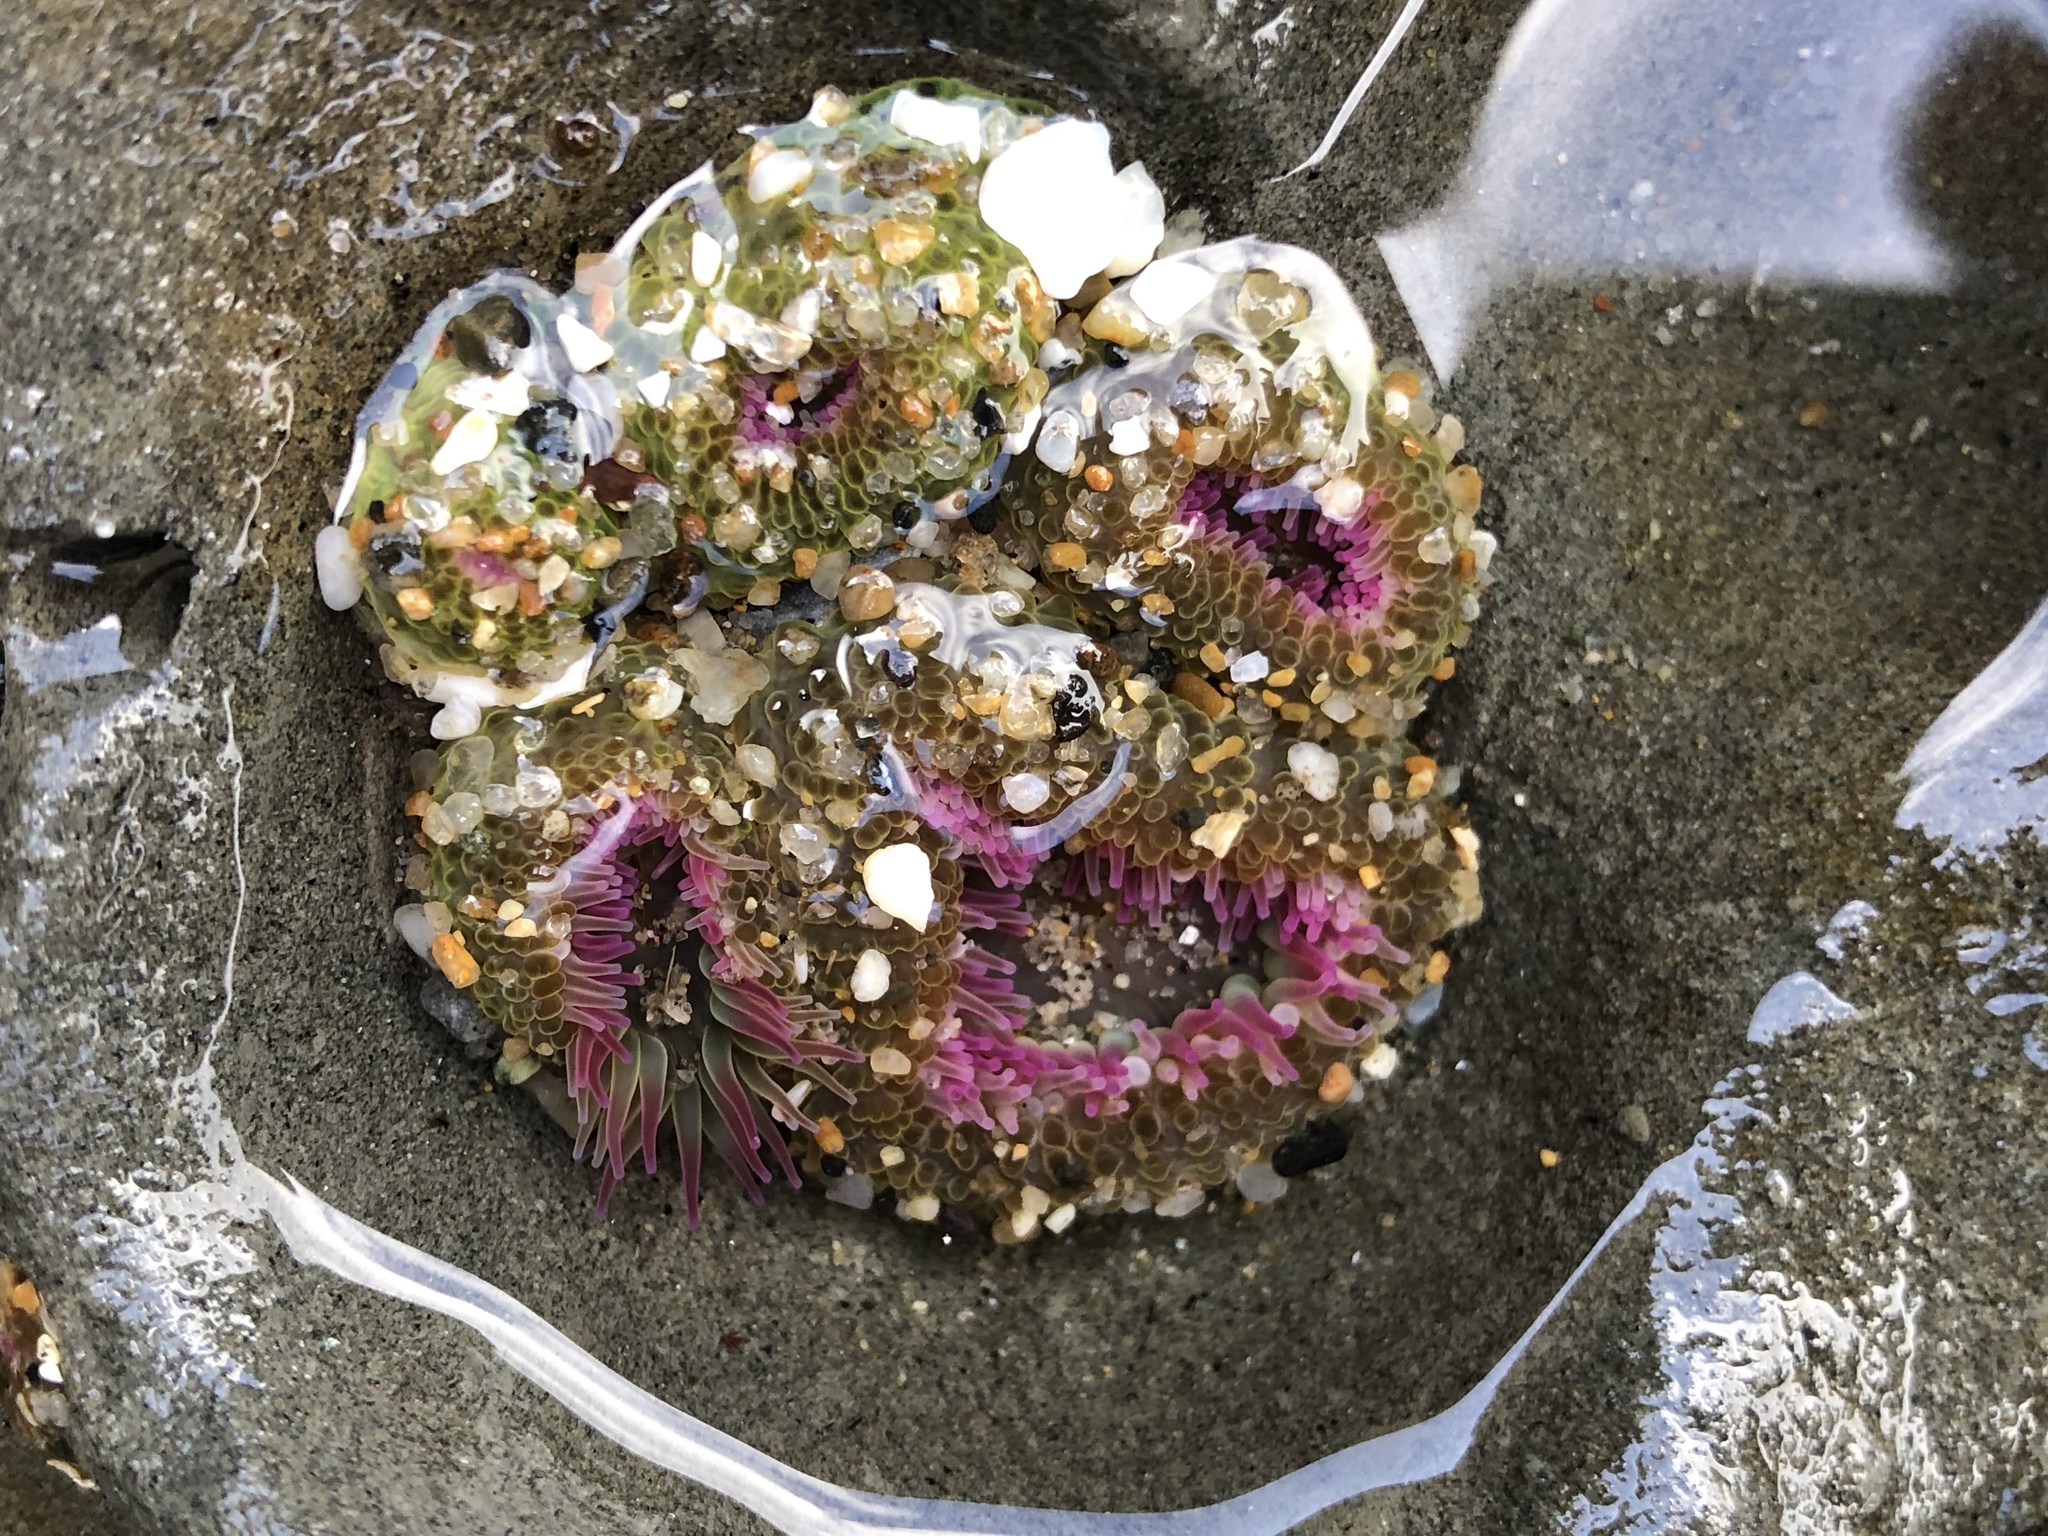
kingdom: Animalia
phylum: Cnidaria
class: Anthozoa
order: Actiniaria
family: Actiniidae
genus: Anthopleura
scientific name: Anthopleura elegantissima
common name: Clonal anemone
